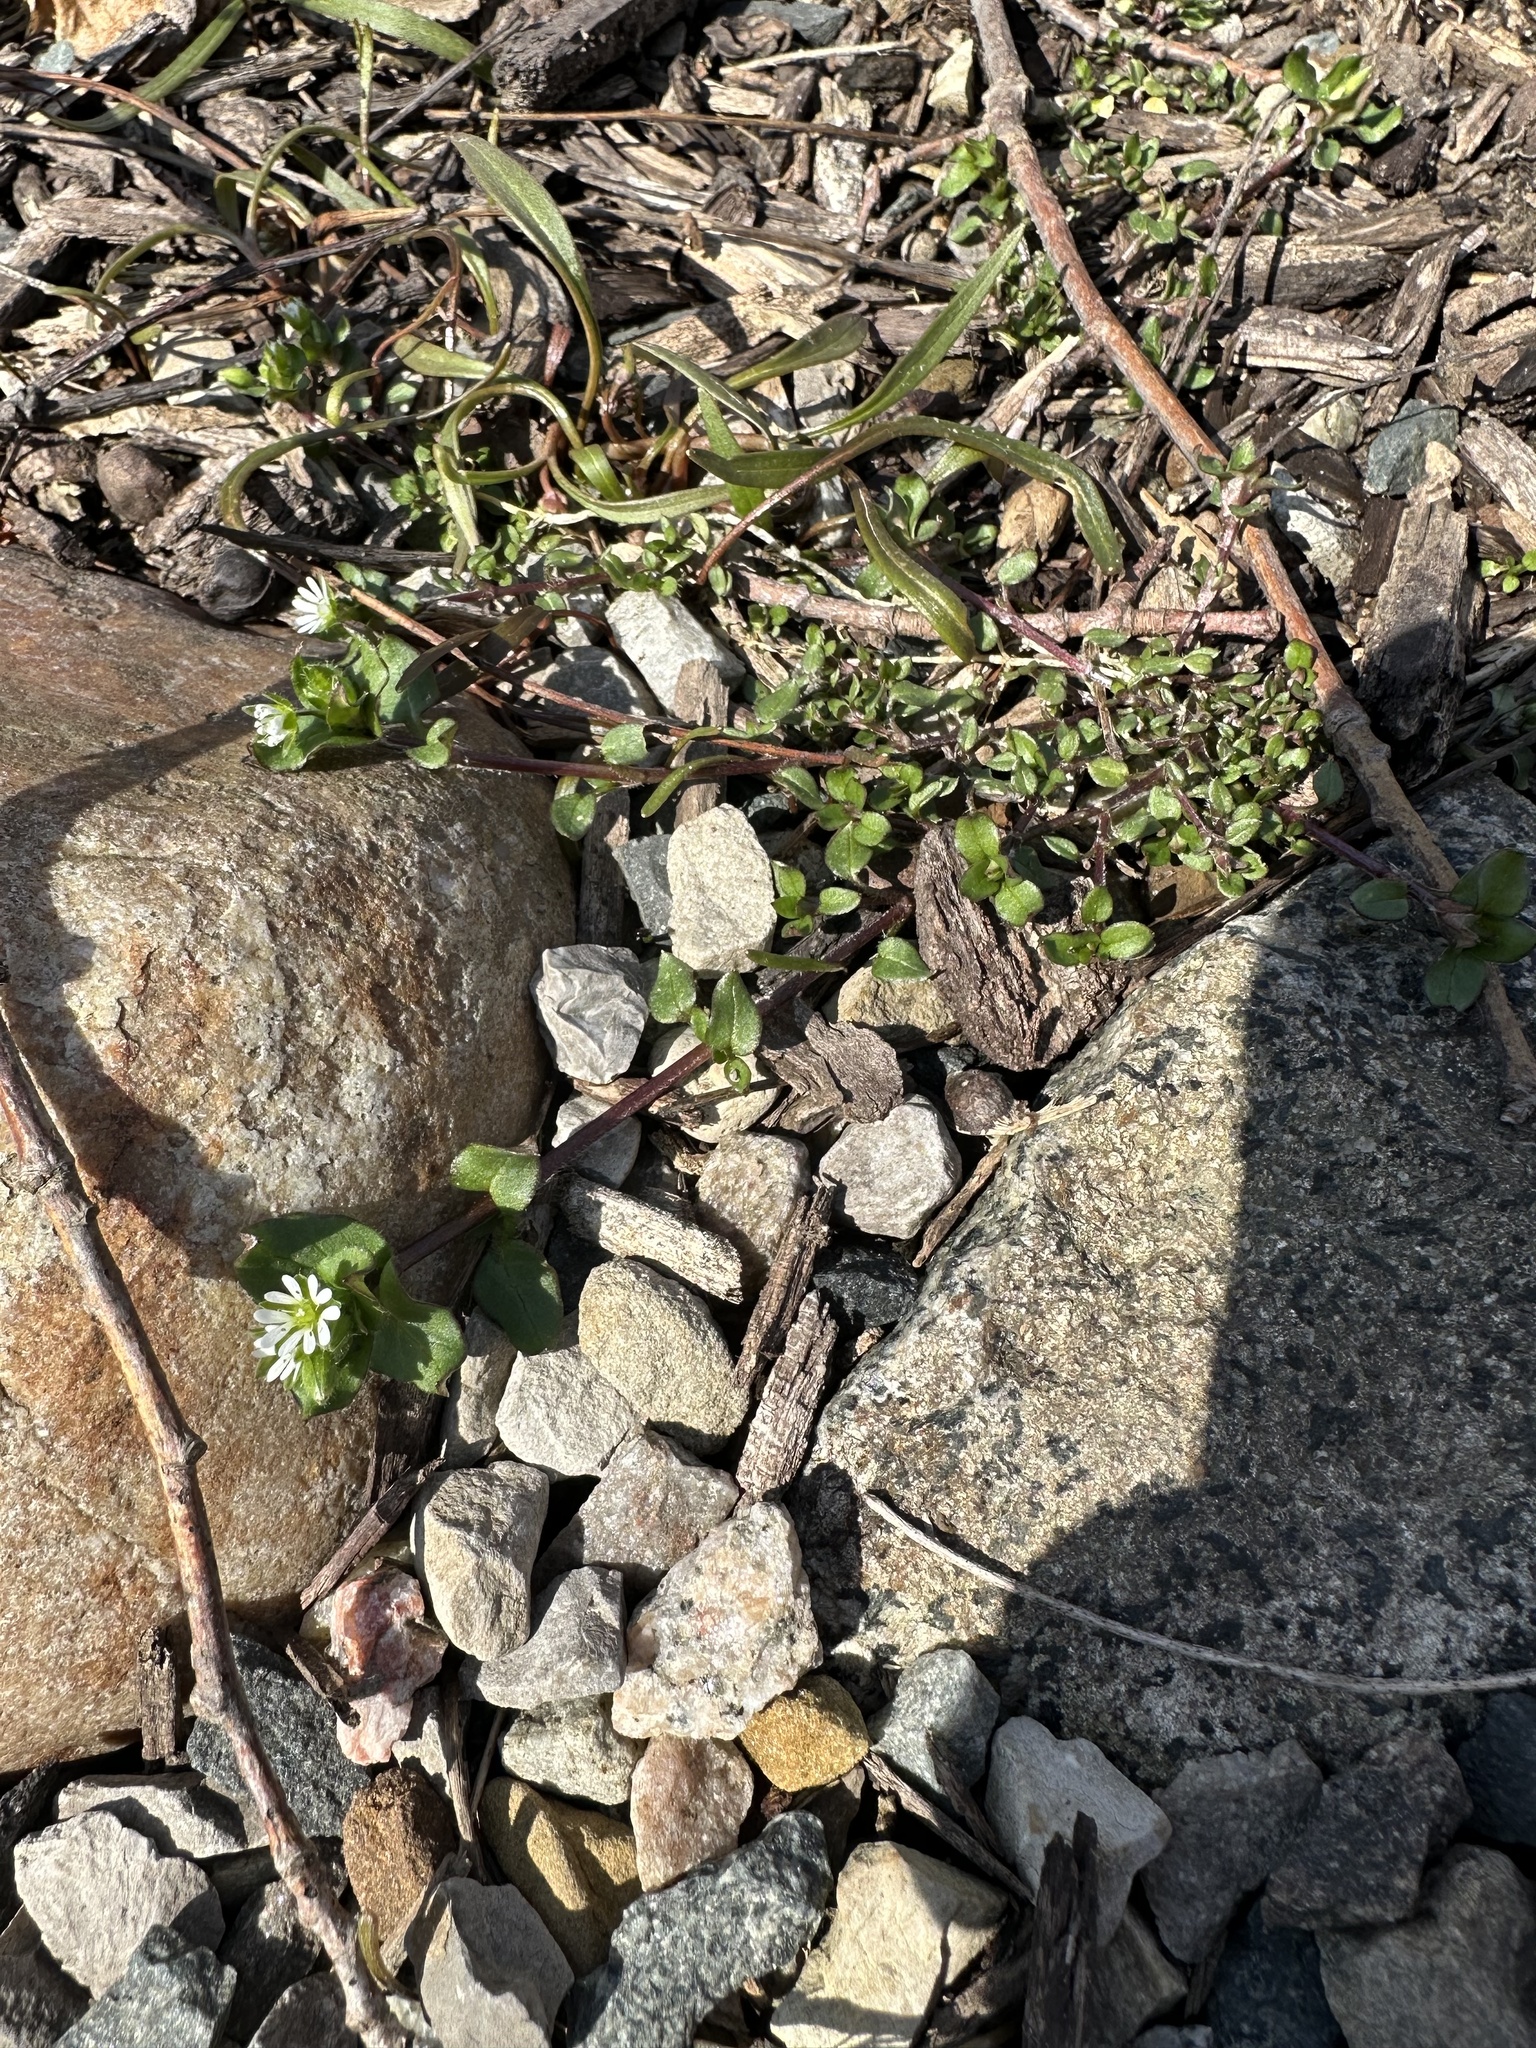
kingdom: Plantae
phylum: Tracheophyta
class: Magnoliopsida
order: Caryophyllales
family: Caryophyllaceae
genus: Stellaria
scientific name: Stellaria media
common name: Common chickweed
